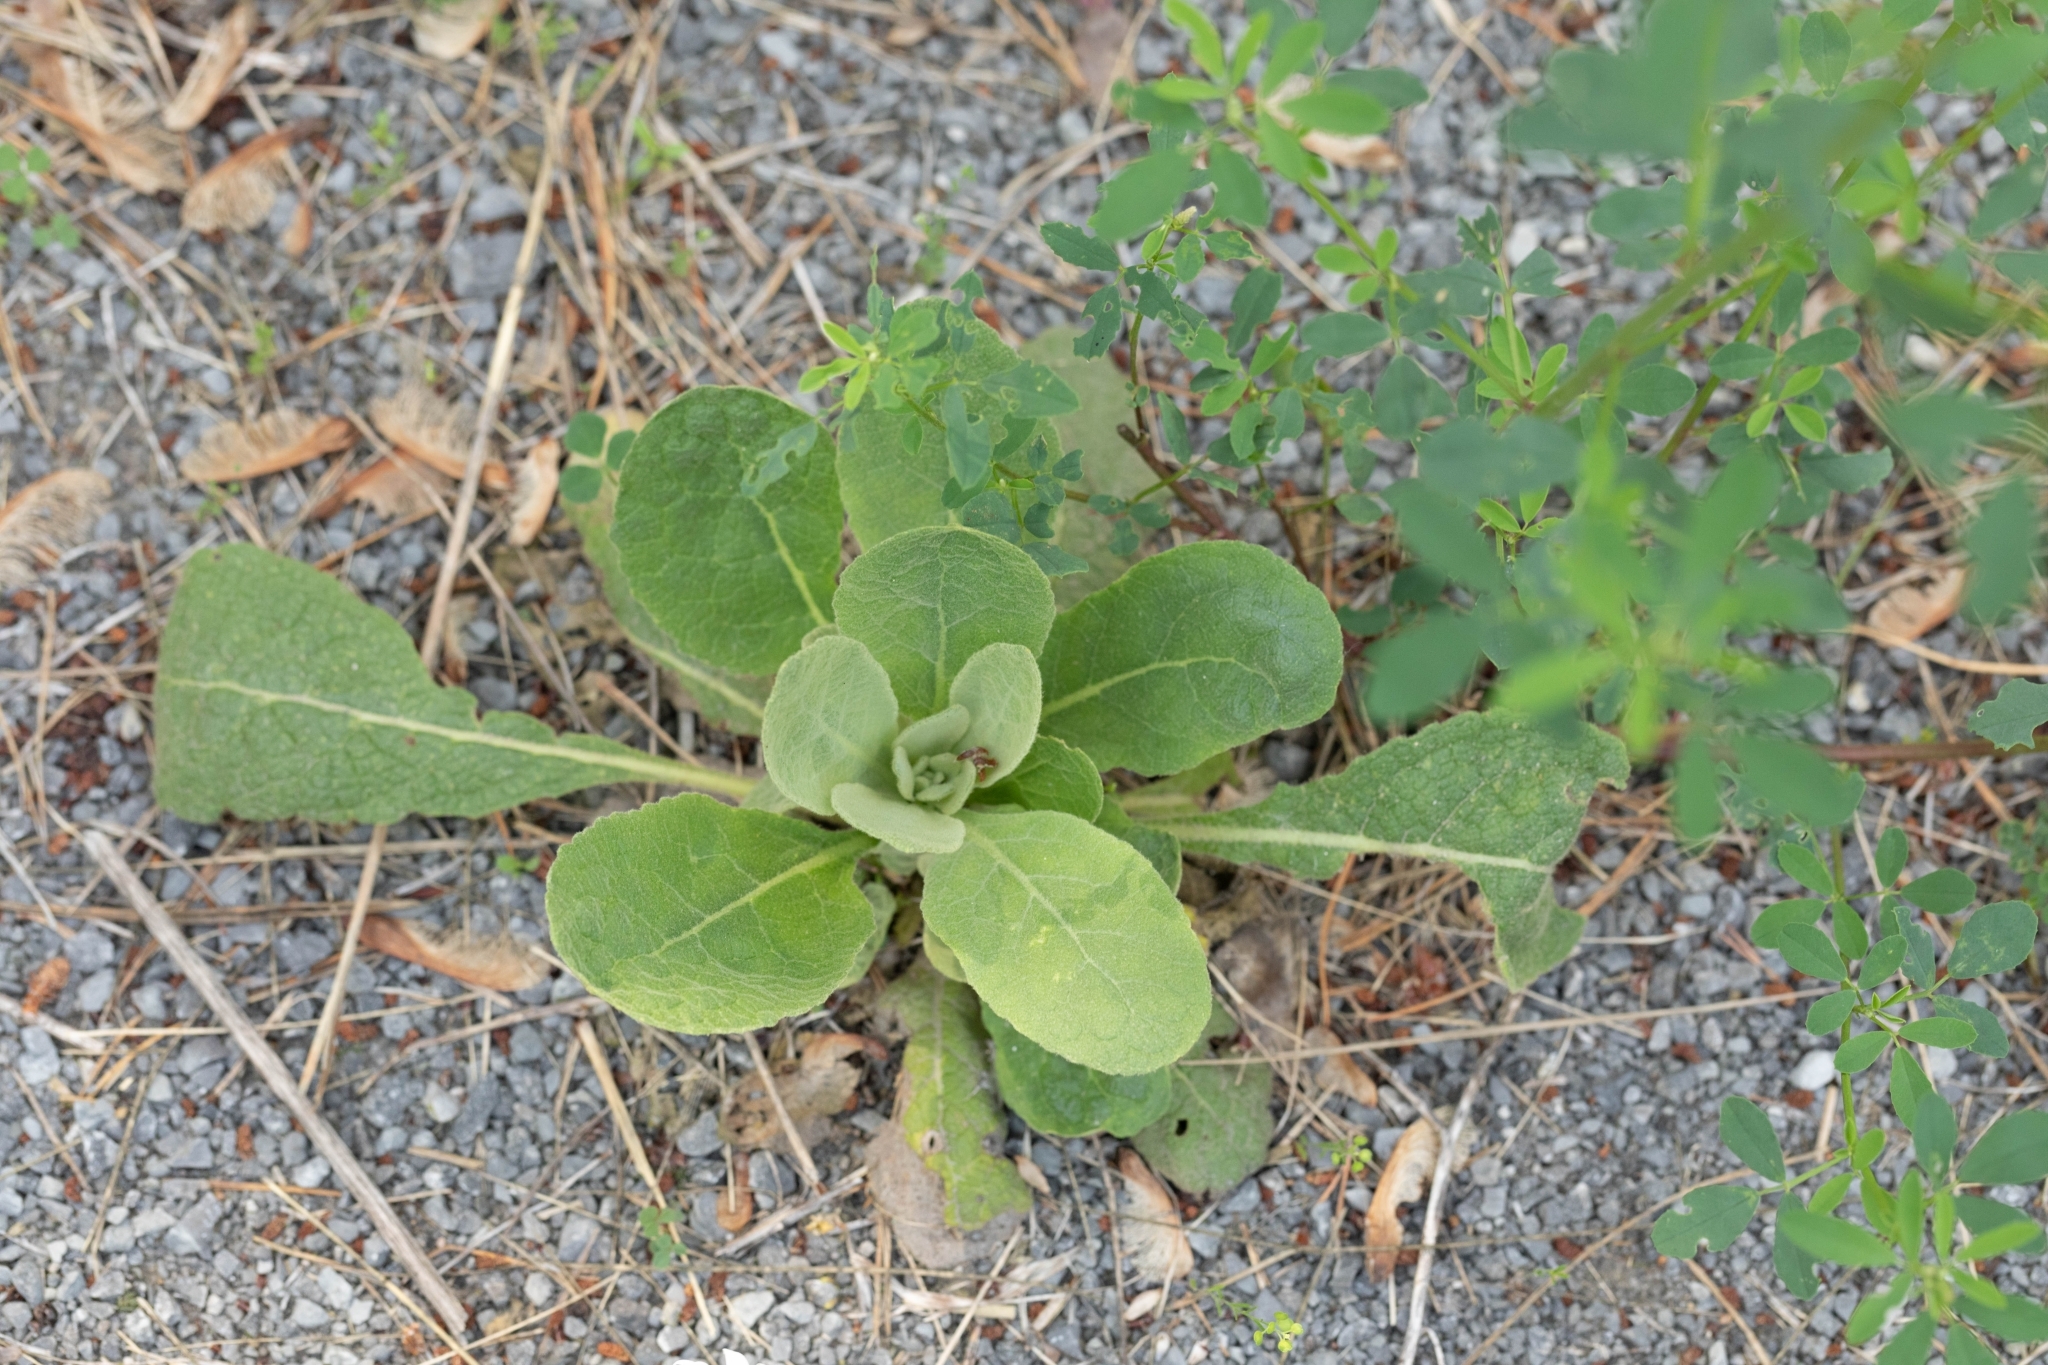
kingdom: Plantae
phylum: Tracheophyta
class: Magnoliopsida
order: Lamiales
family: Scrophulariaceae
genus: Verbascum
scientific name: Verbascum thapsus
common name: Common mullein
